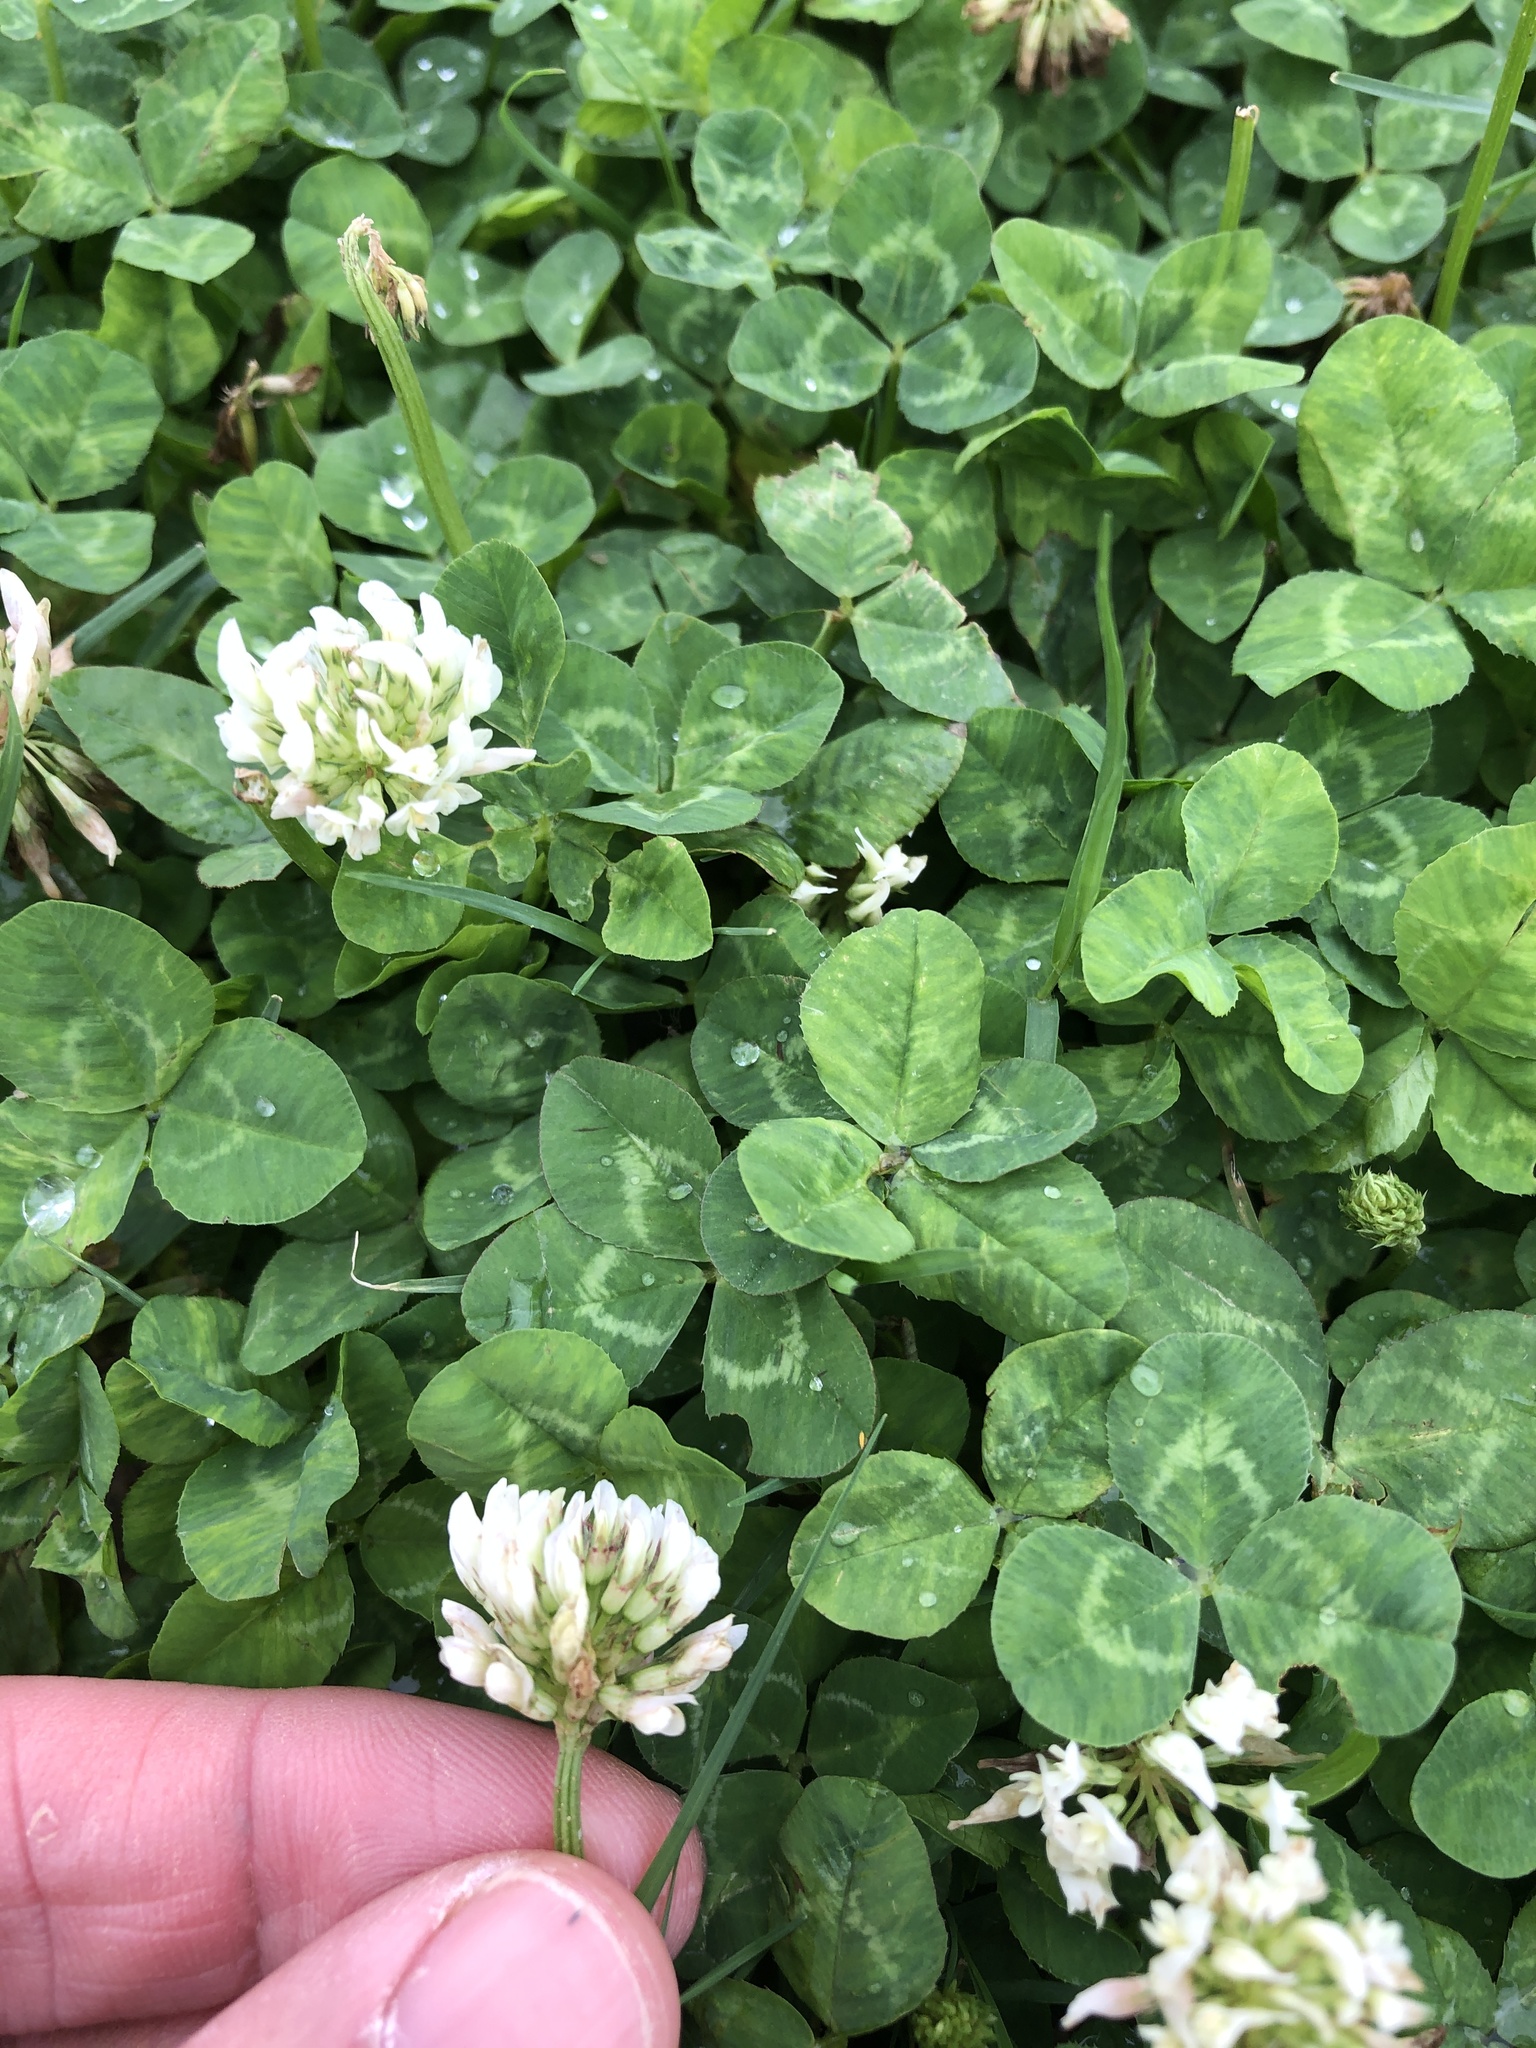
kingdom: Plantae
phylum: Tracheophyta
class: Magnoliopsida
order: Fabales
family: Fabaceae
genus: Trifolium
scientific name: Trifolium repens
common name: White clover
